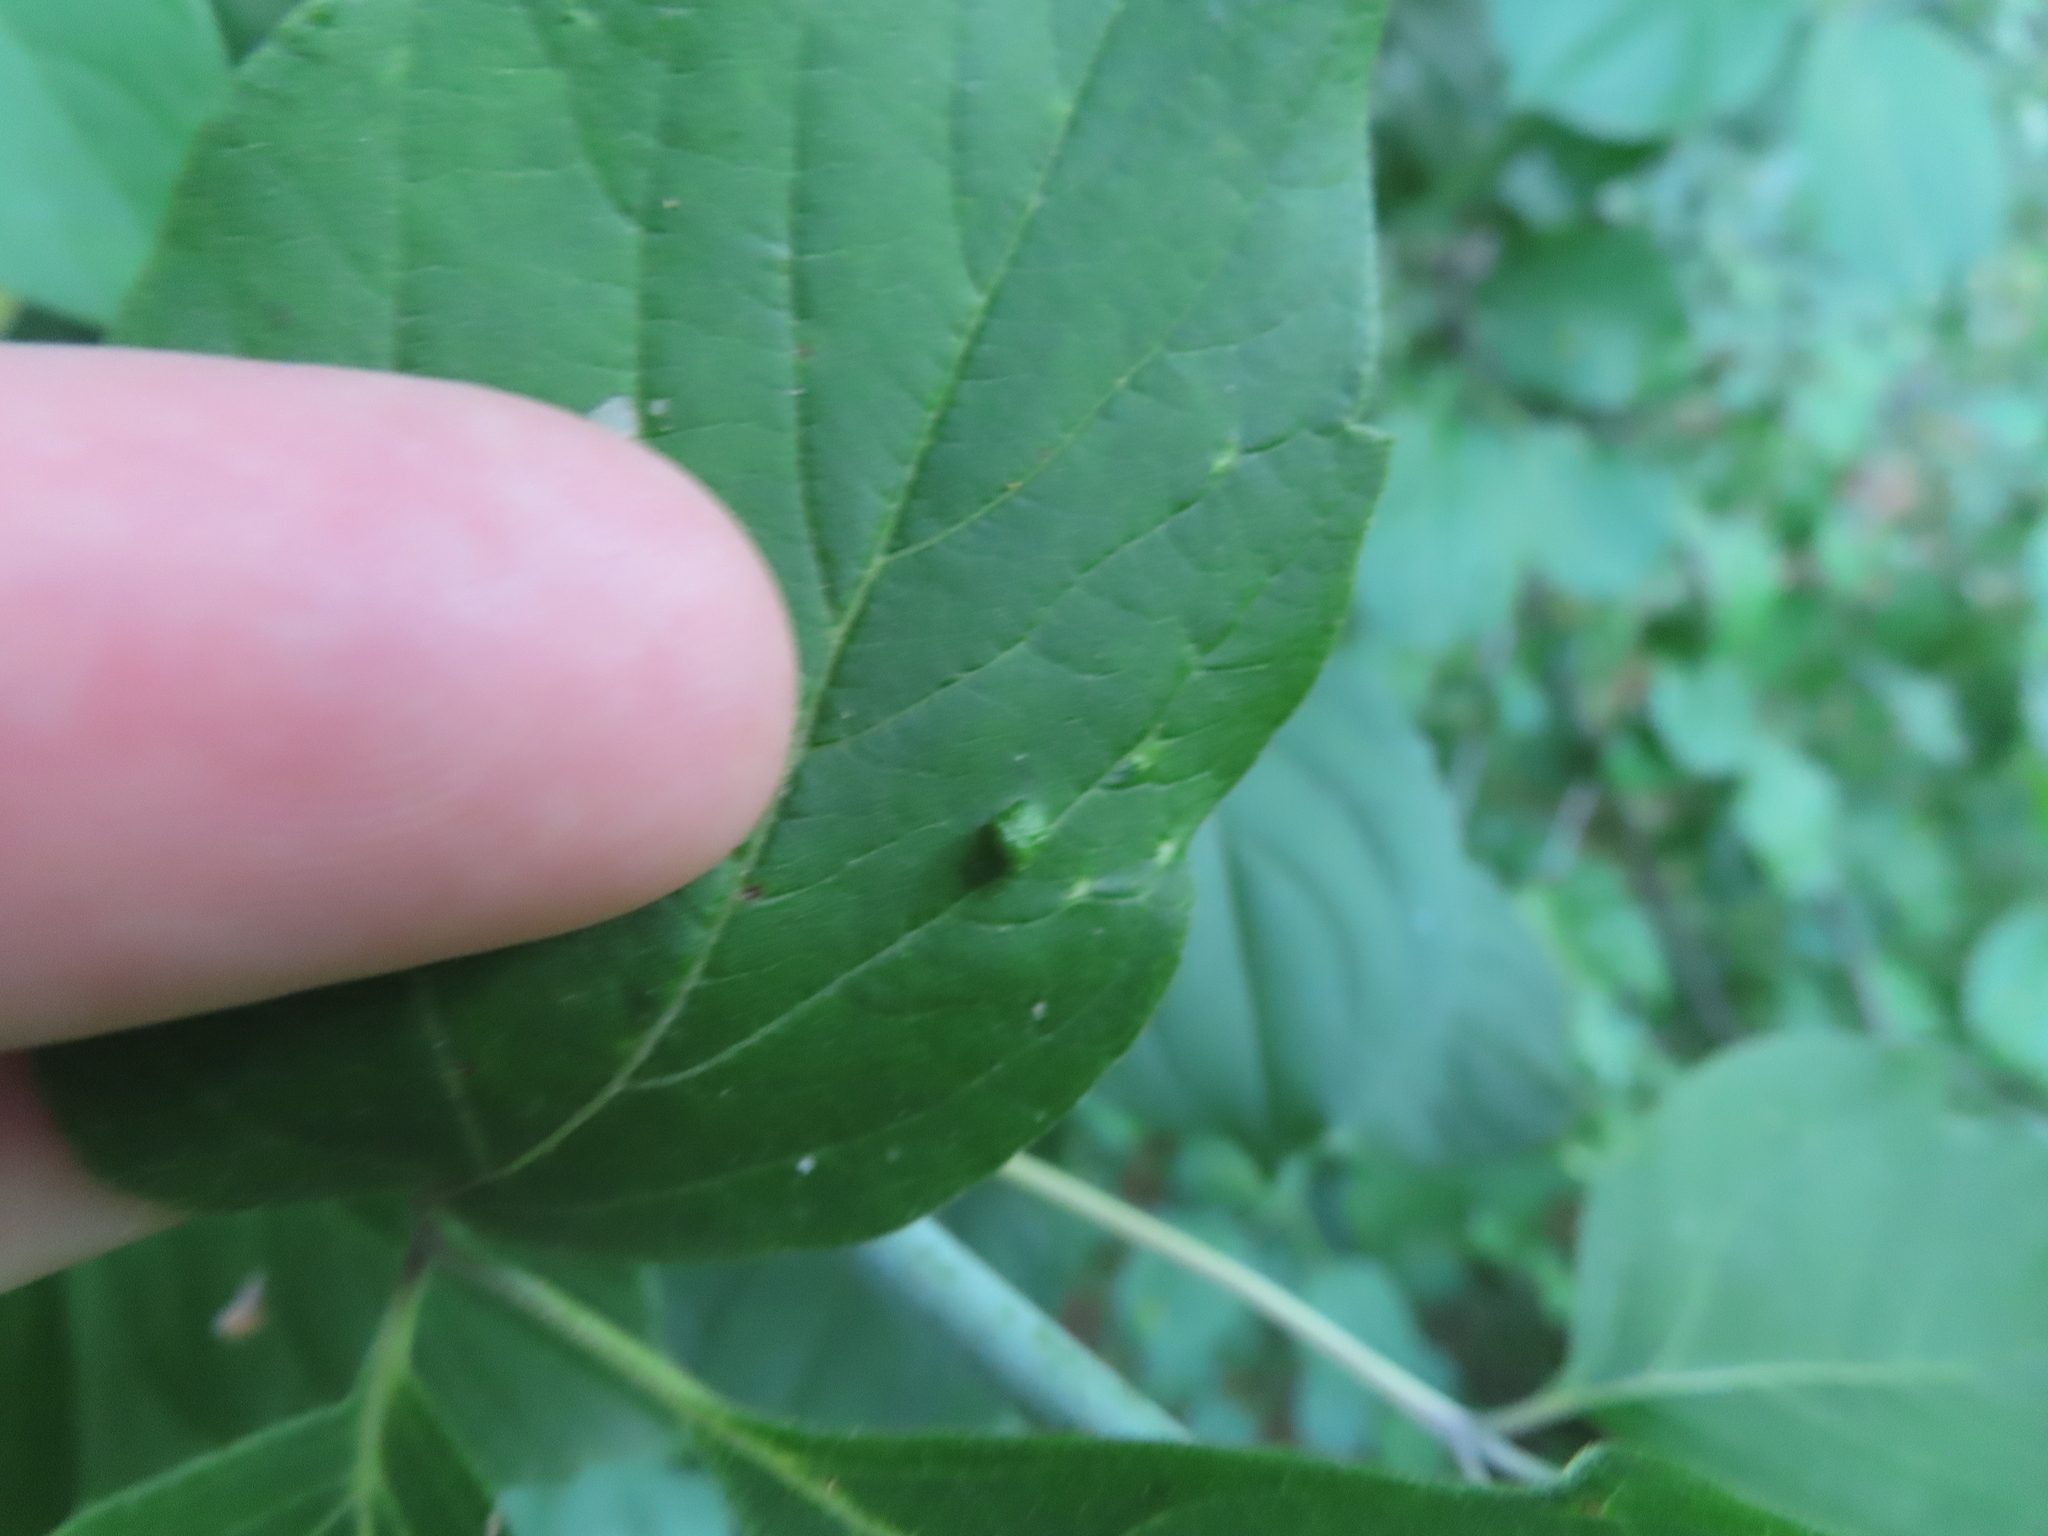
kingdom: Animalia
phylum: Arthropoda
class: Arachnida
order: Trombidiformes
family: Eriophyidae
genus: Aceria
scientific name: Aceria
